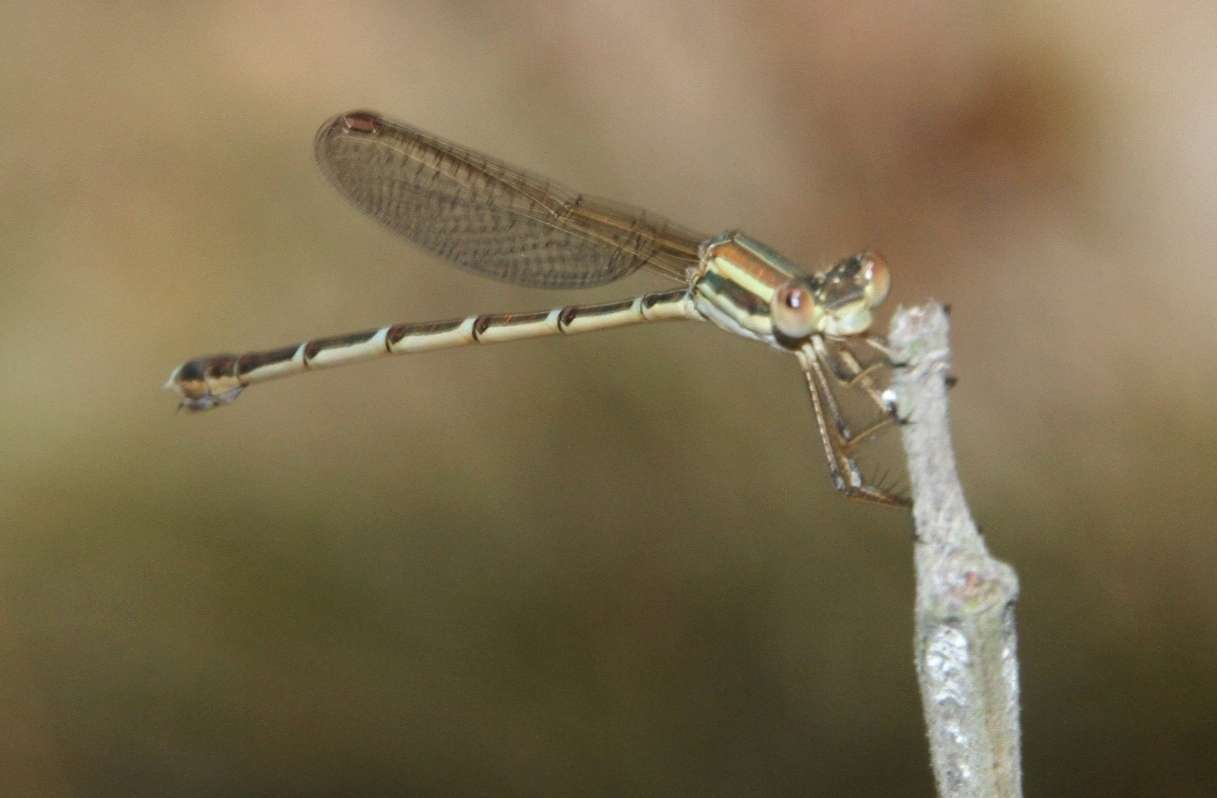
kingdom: Animalia
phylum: Arthropoda
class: Insecta
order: Odonata
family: Lestidae
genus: Austrolestes
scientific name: Austrolestes analis
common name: Slender ringtail
